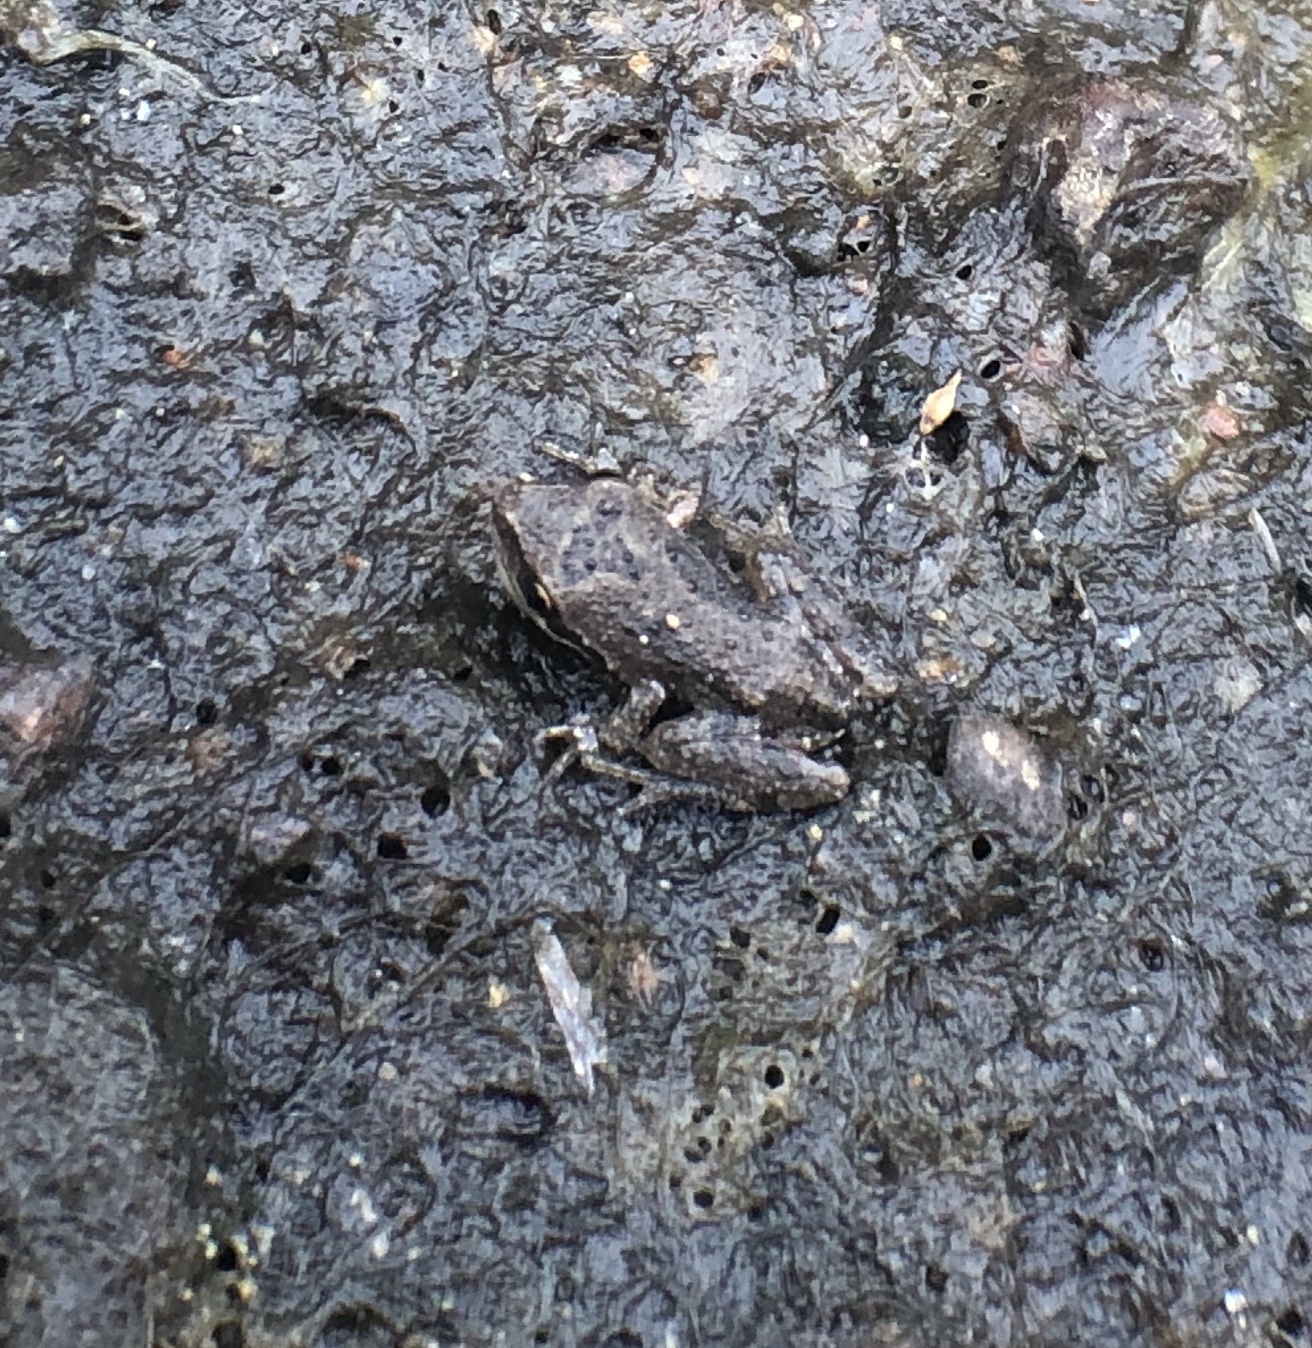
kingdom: Animalia
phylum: Chordata
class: Amphibia
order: Anura
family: Hylidae
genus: Pseudacris
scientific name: Pseudacris regilla
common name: Pacific chorus frog
